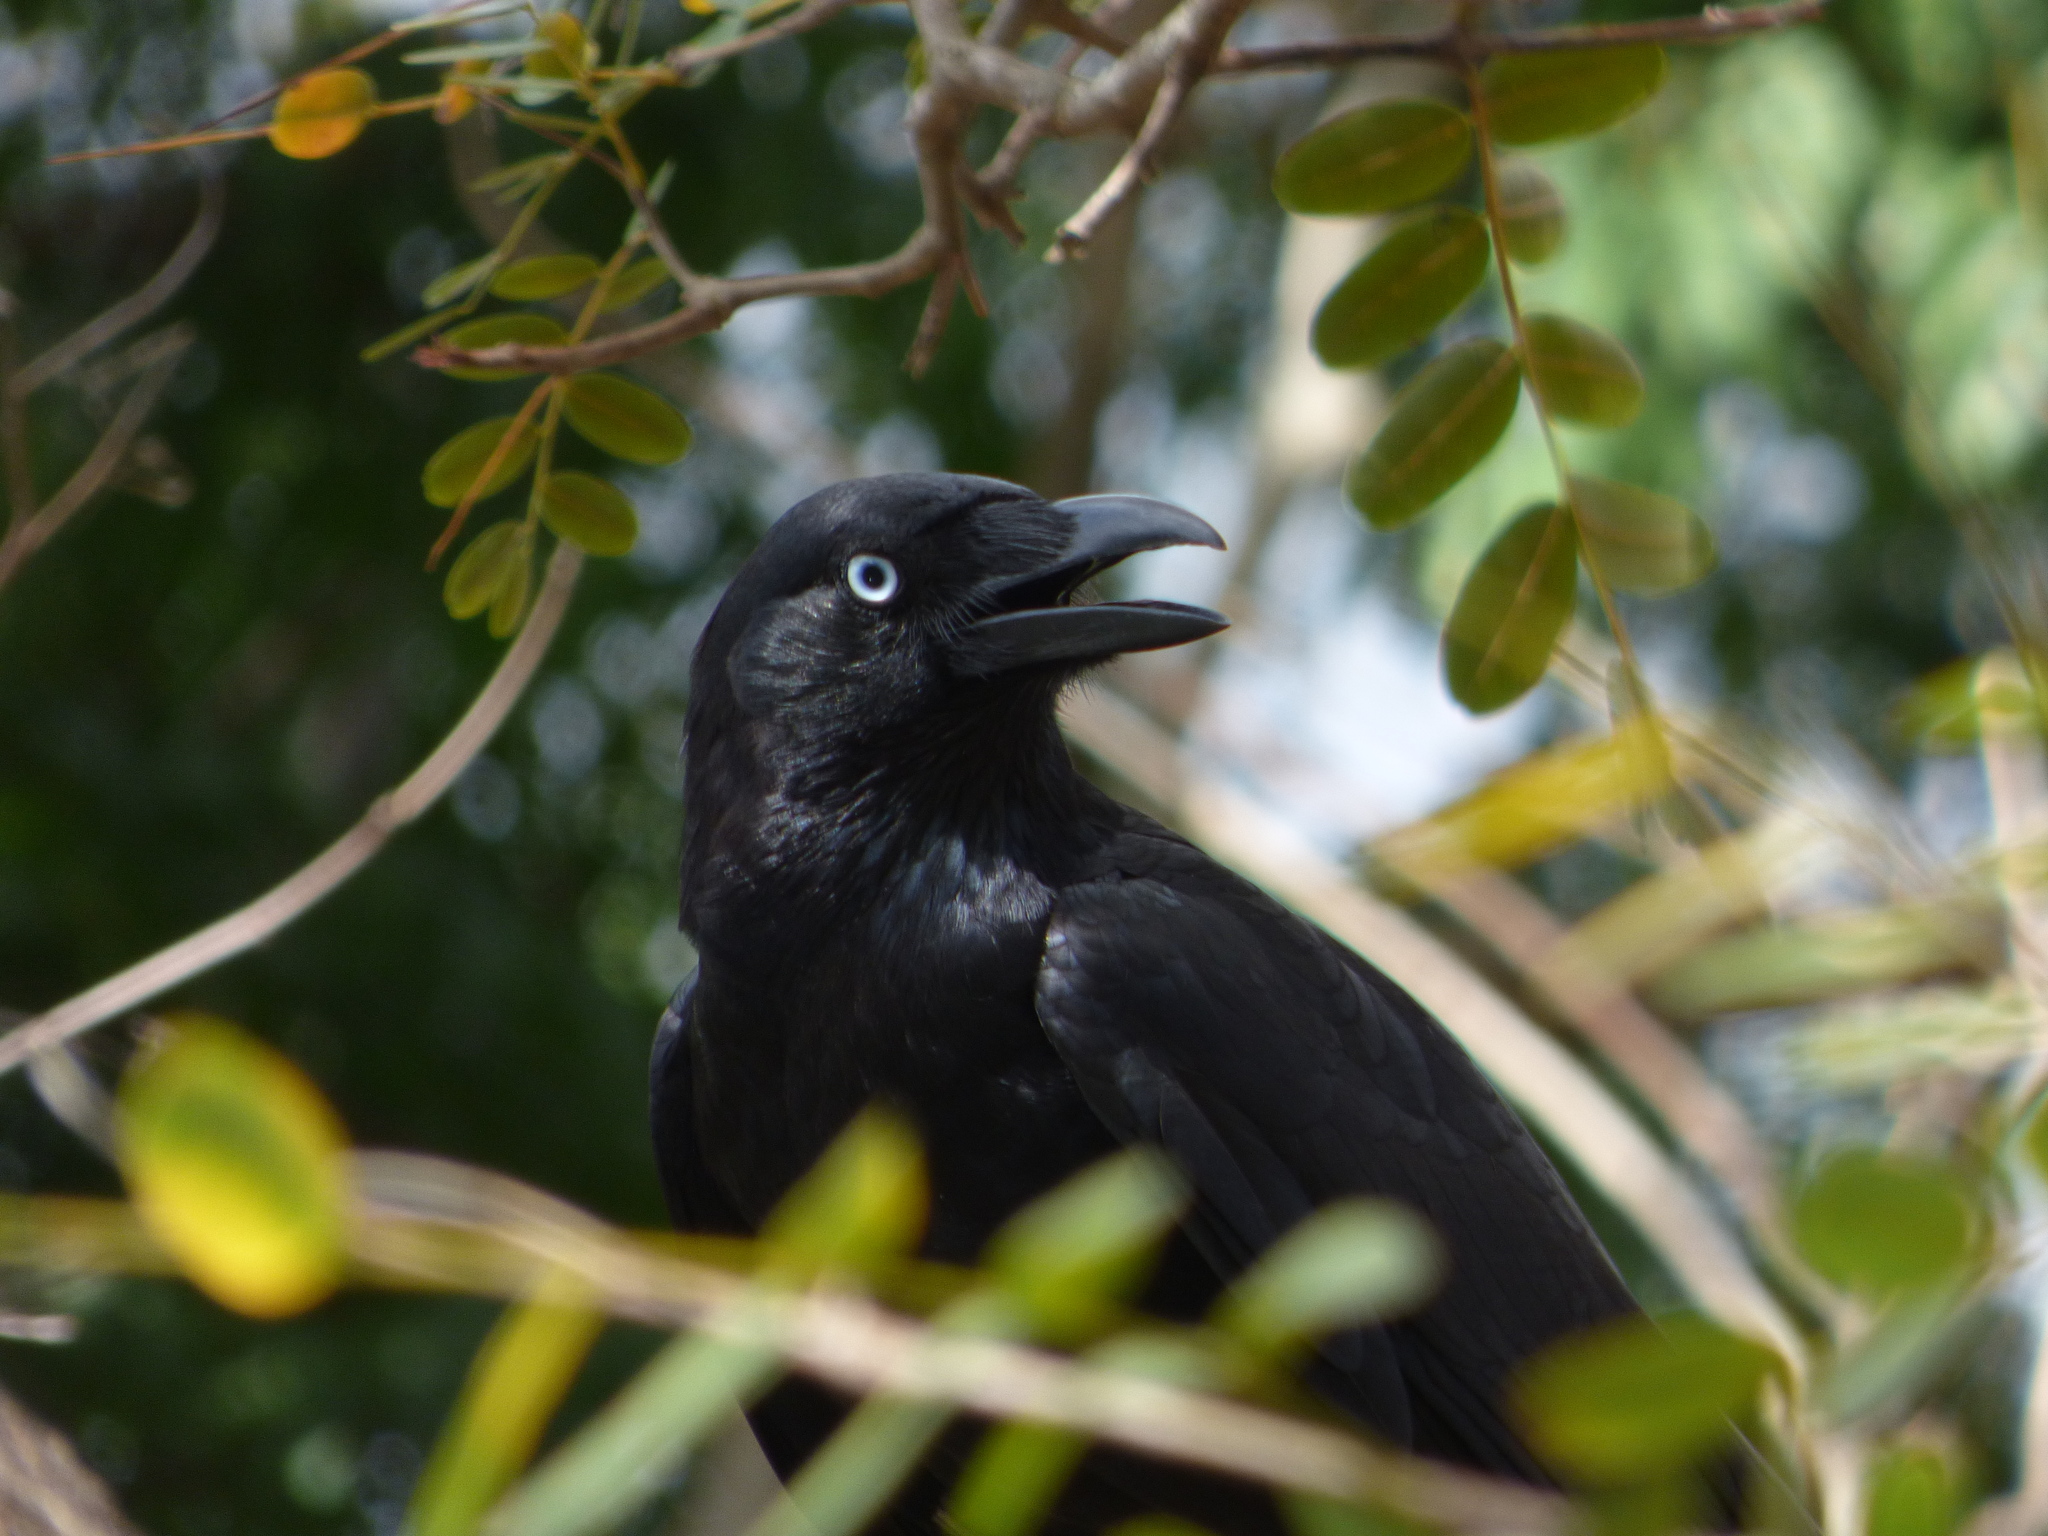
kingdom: Animalia
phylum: Chordata
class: Aves
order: Passeriformes
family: Corvidae
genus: Corvus
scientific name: Corvus orru
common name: Torresian crow
